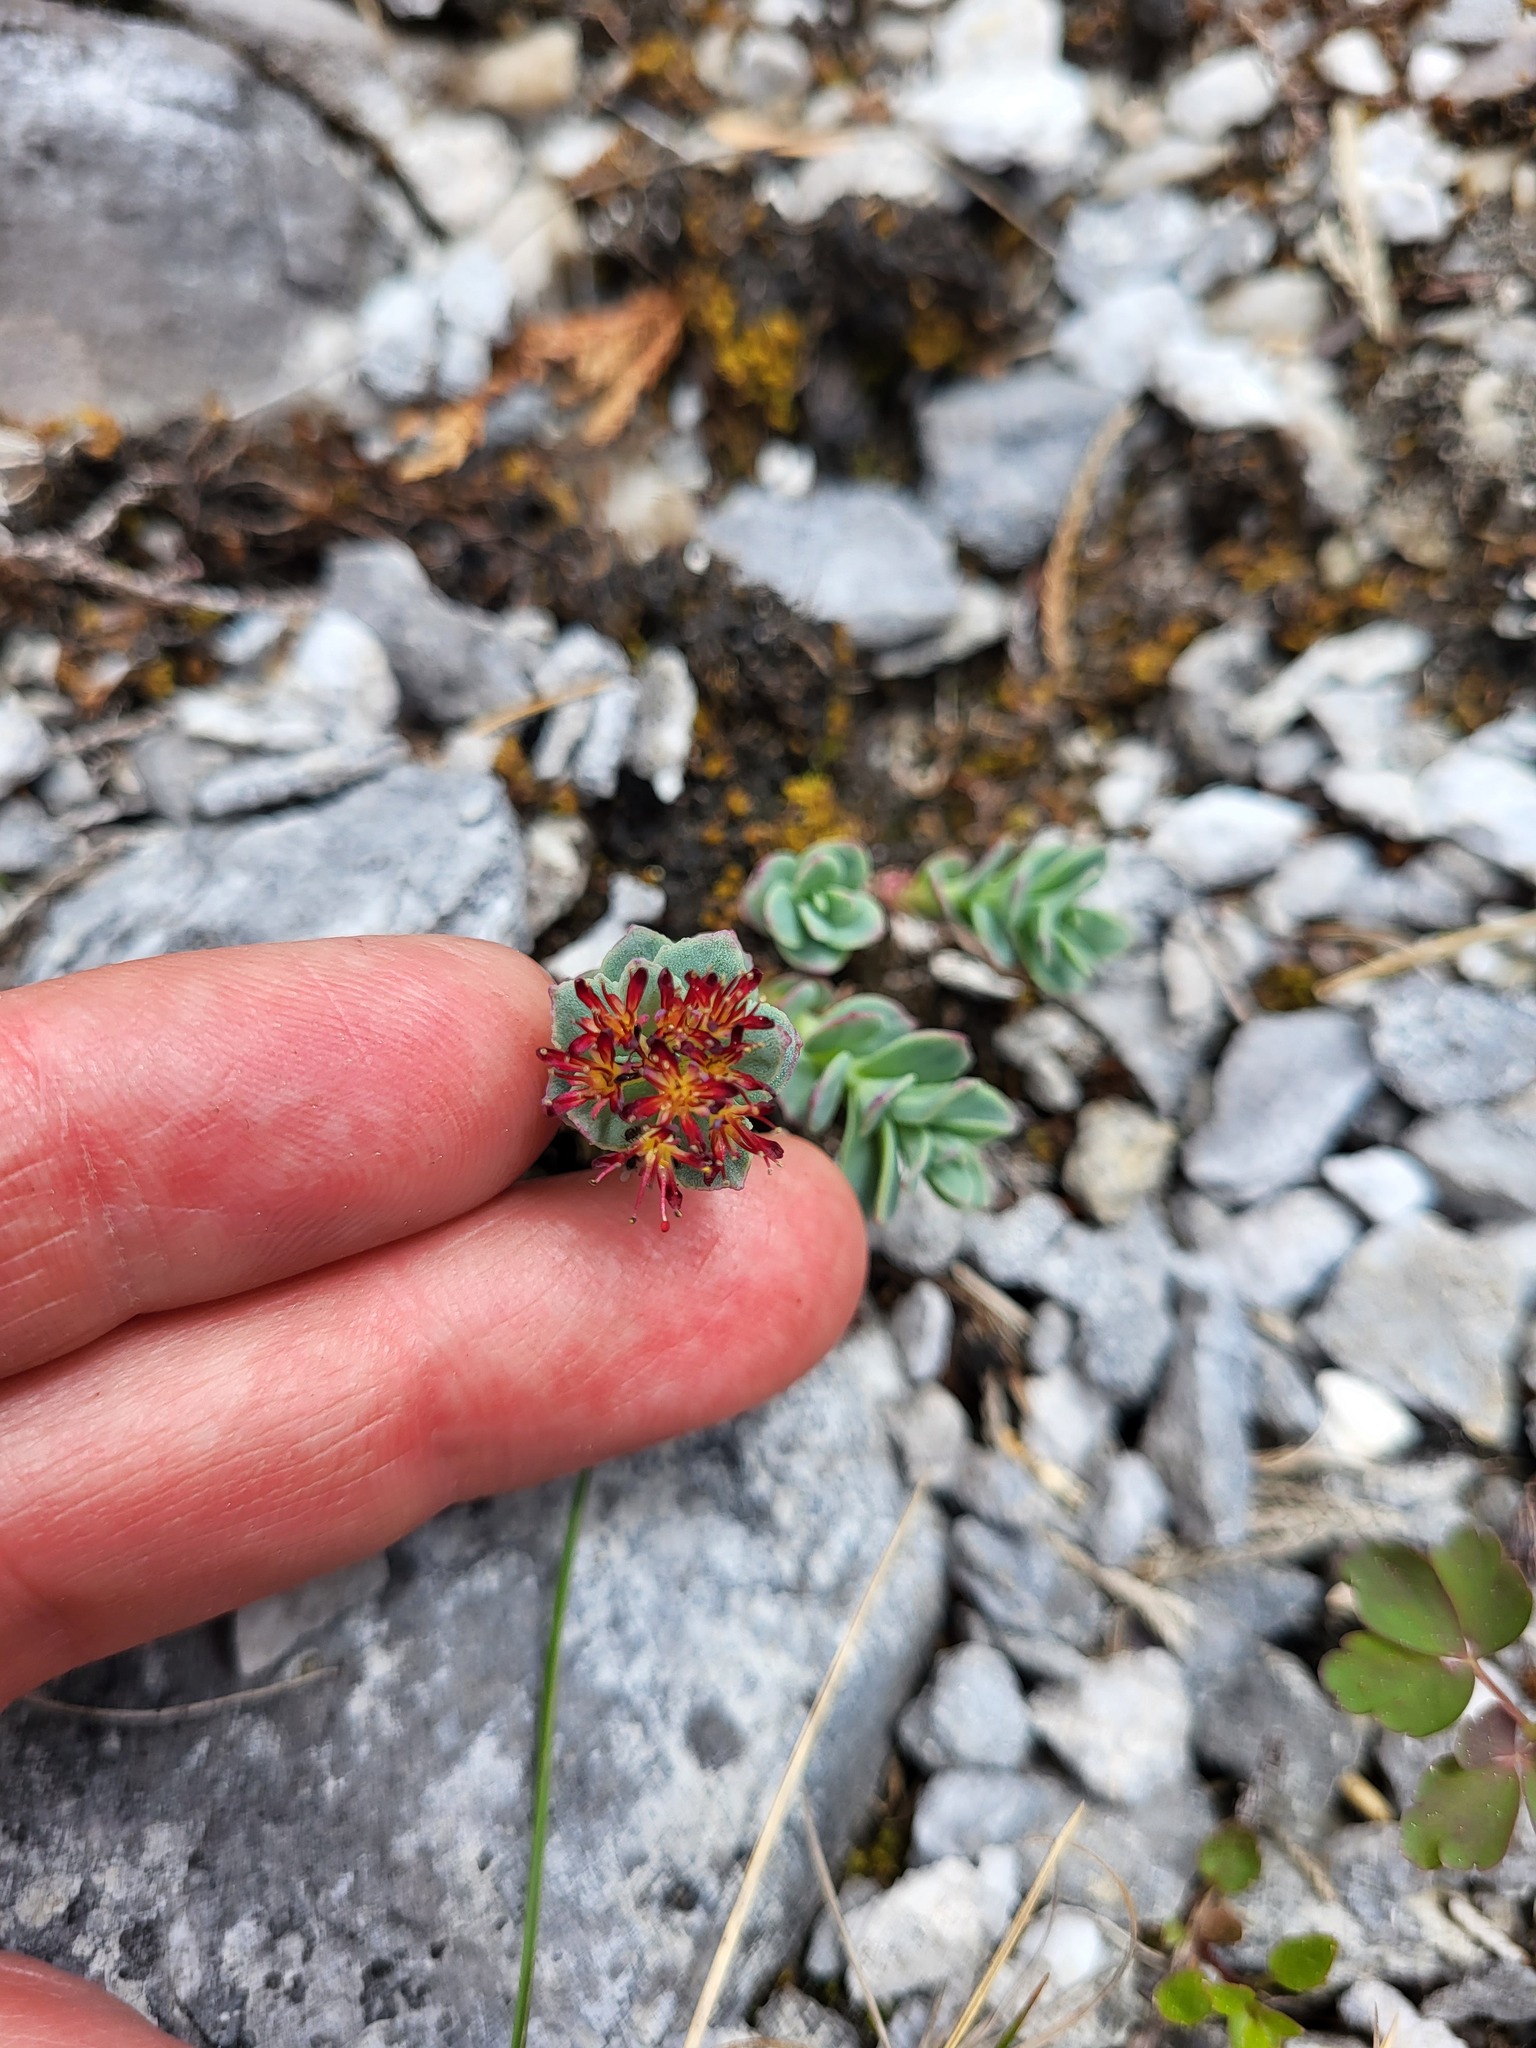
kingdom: Plantae
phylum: Tracheophyta
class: Magnoliopsida
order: Saxifragales
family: Crassulaceae
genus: Rhodiola
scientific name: Rhodiola integrifolia
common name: Western roseroot
